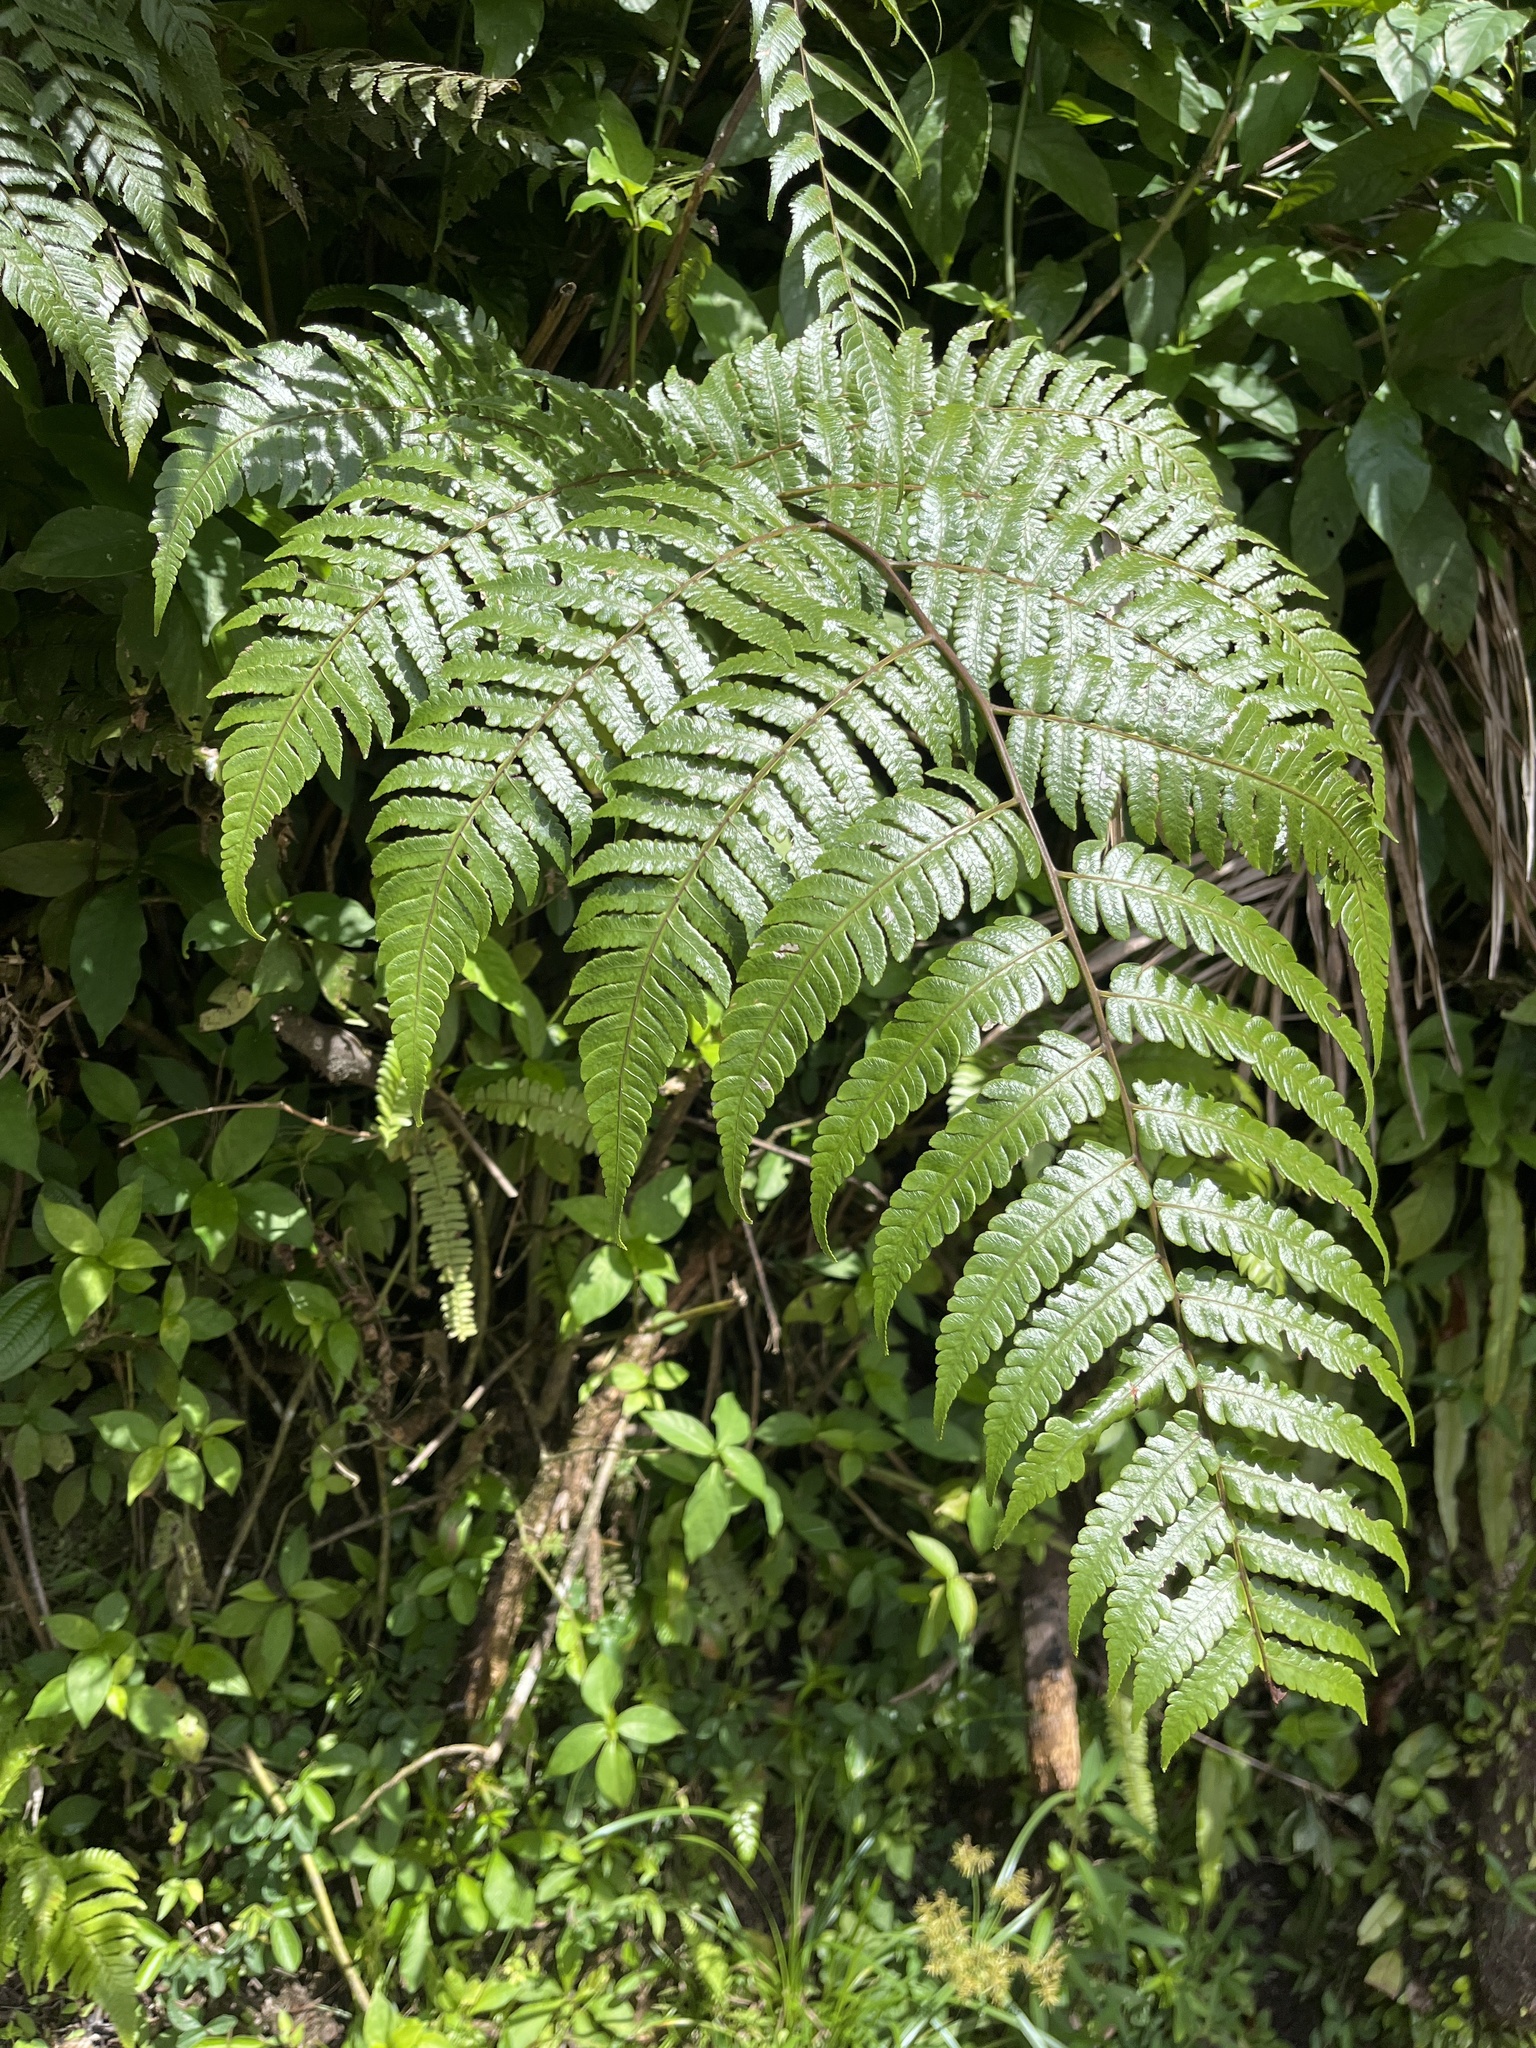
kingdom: Plantae
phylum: Tracheophyta
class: Polypodiopsida
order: Cyatheales
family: Cyatheaceae
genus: Cyathea
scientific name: Cyathea borinquena
